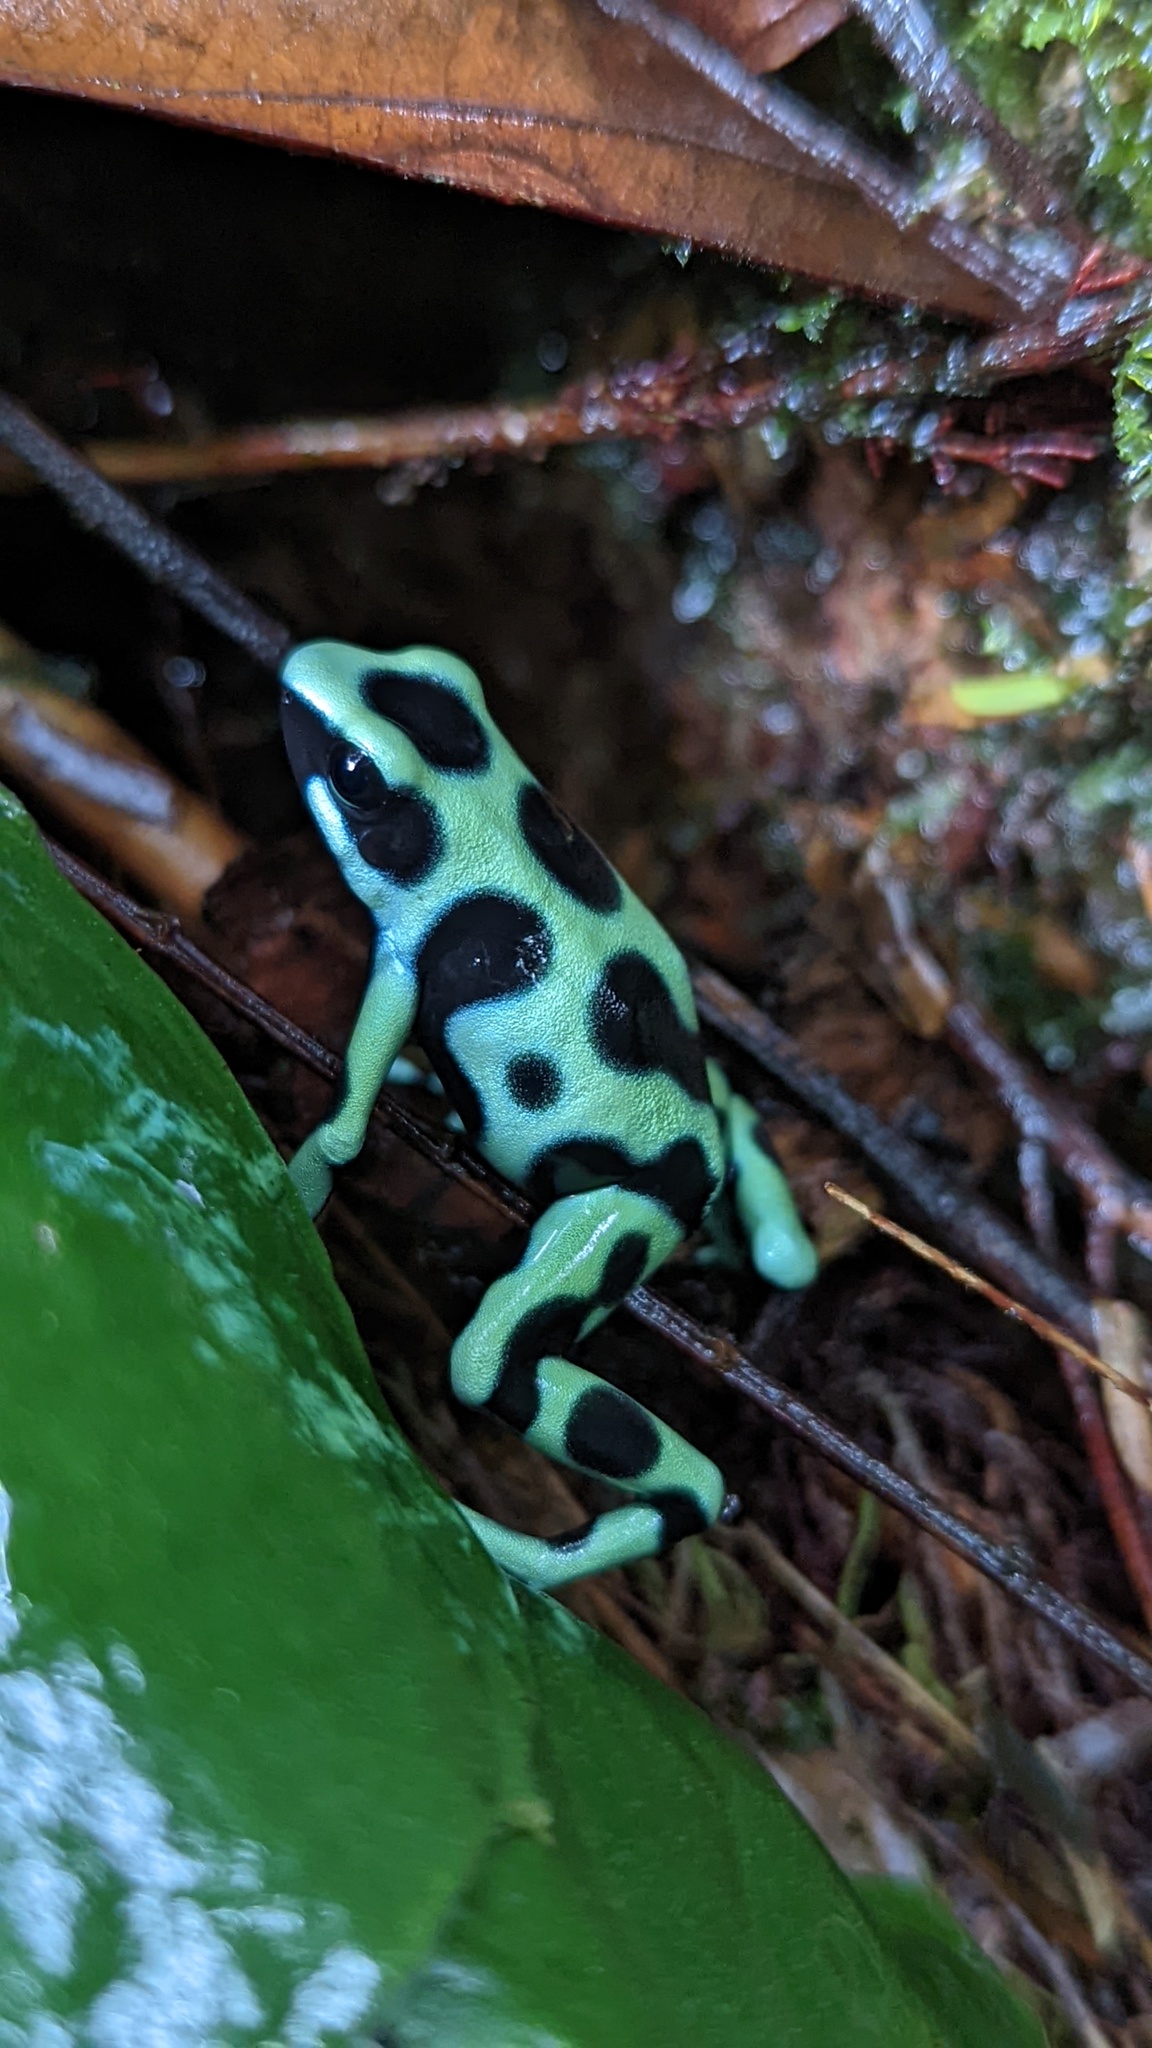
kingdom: Animalia
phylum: Chordata
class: Amphibia
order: Anura
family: Dendrobatidae
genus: Dendrobates
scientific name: Dendrobates auratus
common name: Green and black poison dart frog
